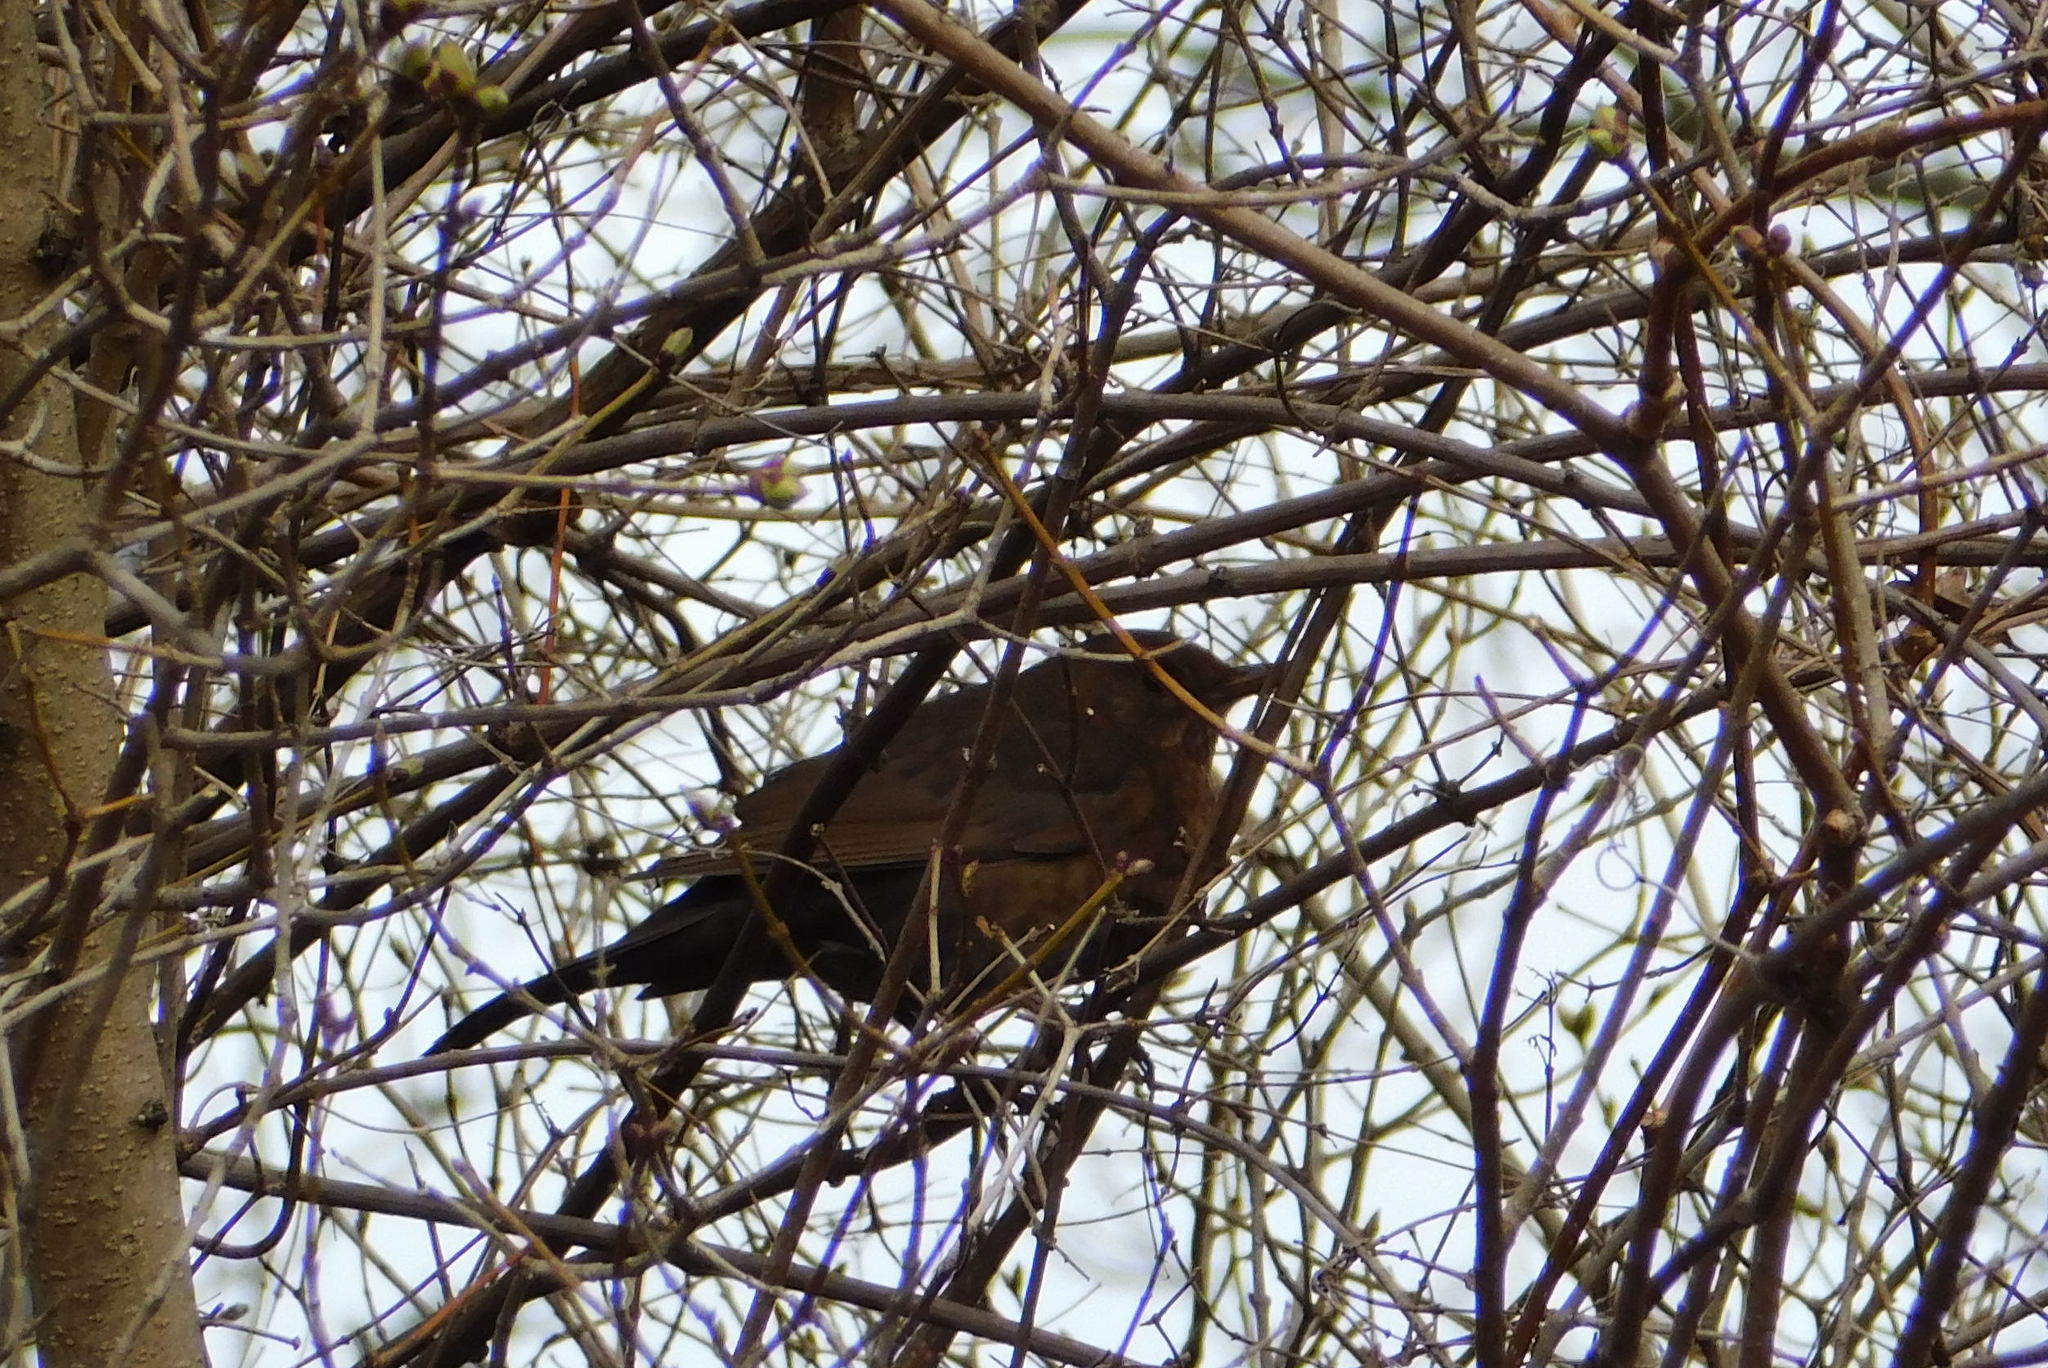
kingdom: Animalia
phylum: Chordata
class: Aves
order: Passeriformes
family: Turdidae
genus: Turdus
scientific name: Turdus merula
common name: Common blackbird
